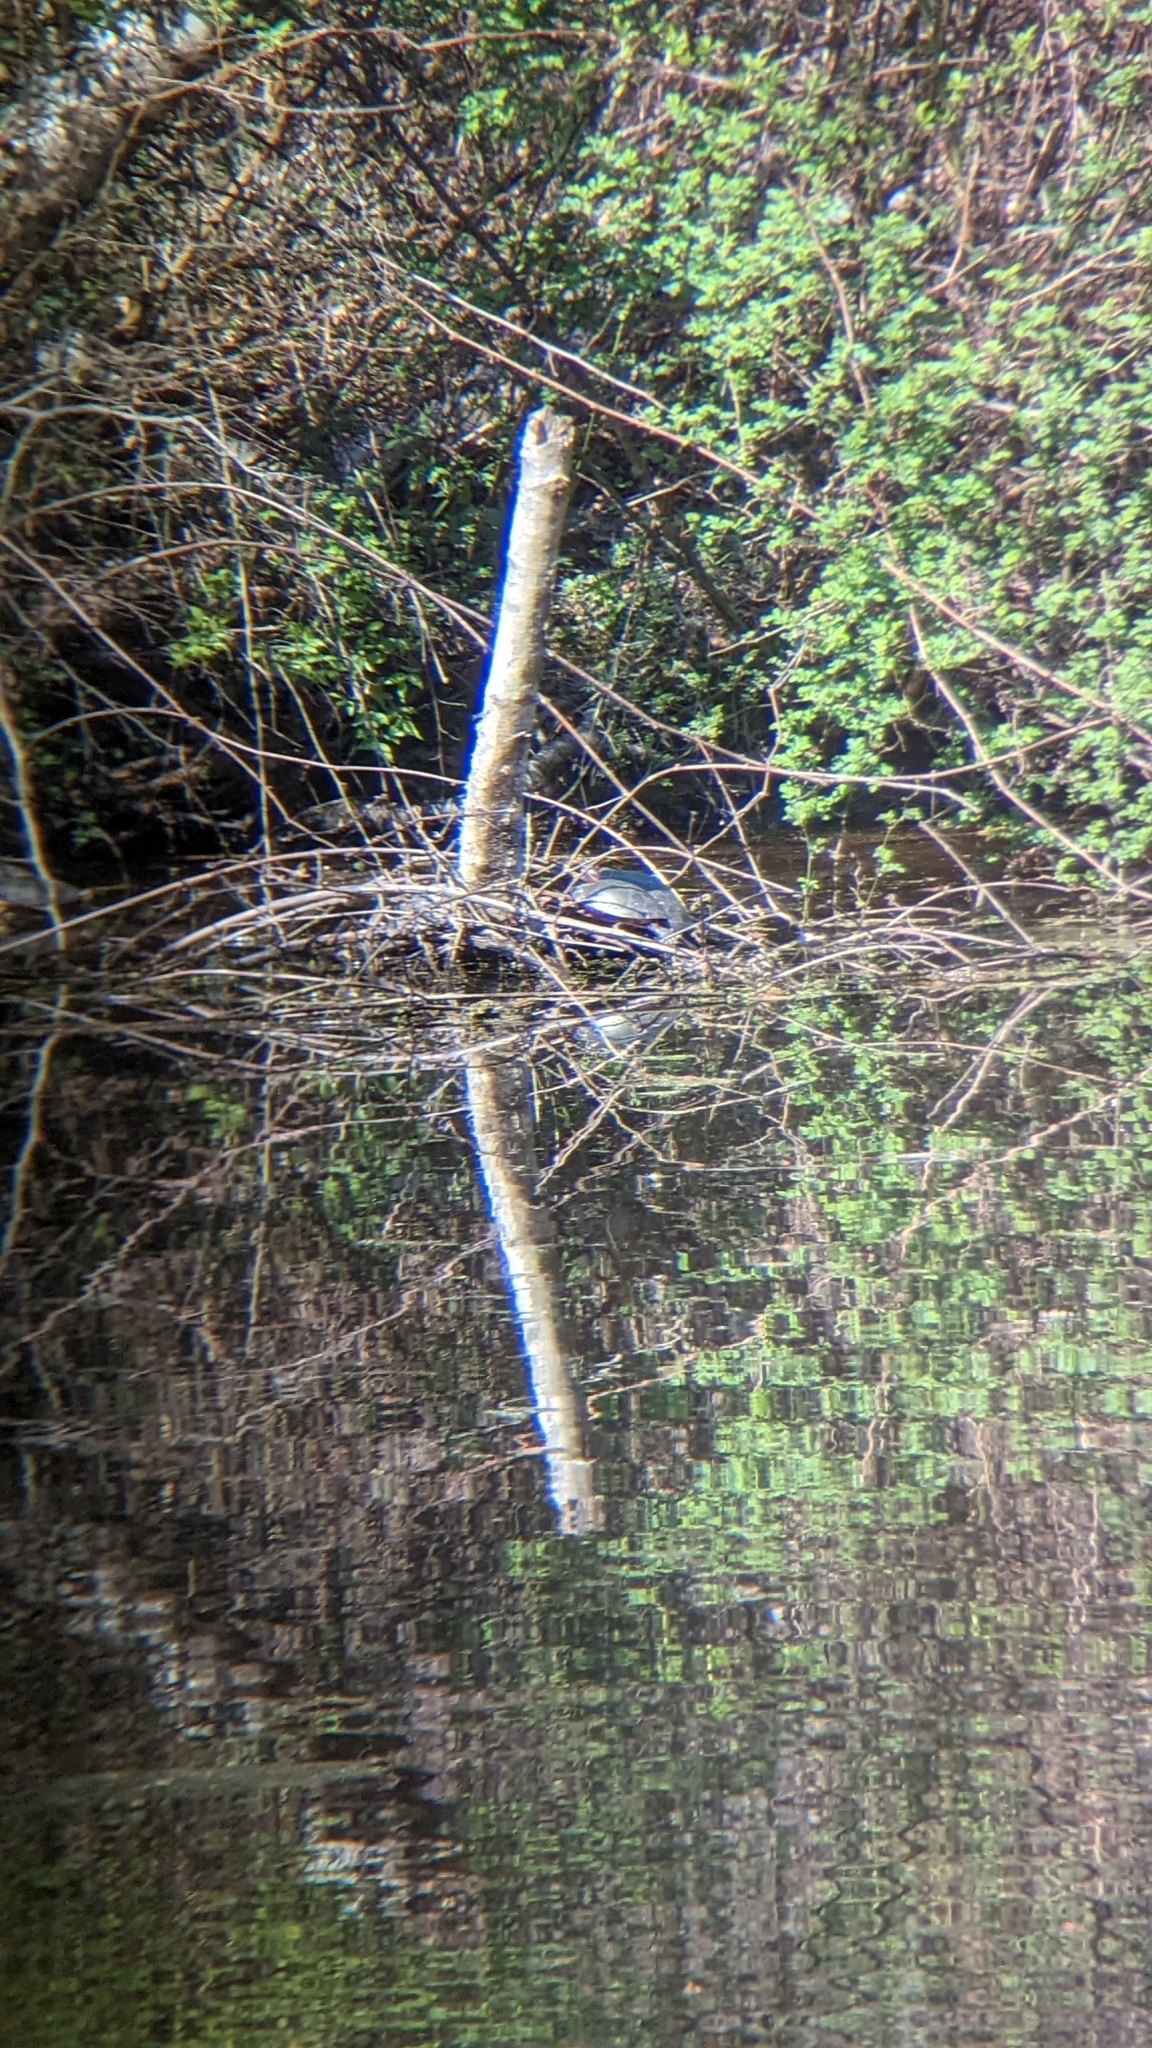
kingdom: Animalia
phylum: Chordata
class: Testudines
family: Emydidae
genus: Chrysemys
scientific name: Chrysemys picta
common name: Painted turtle
